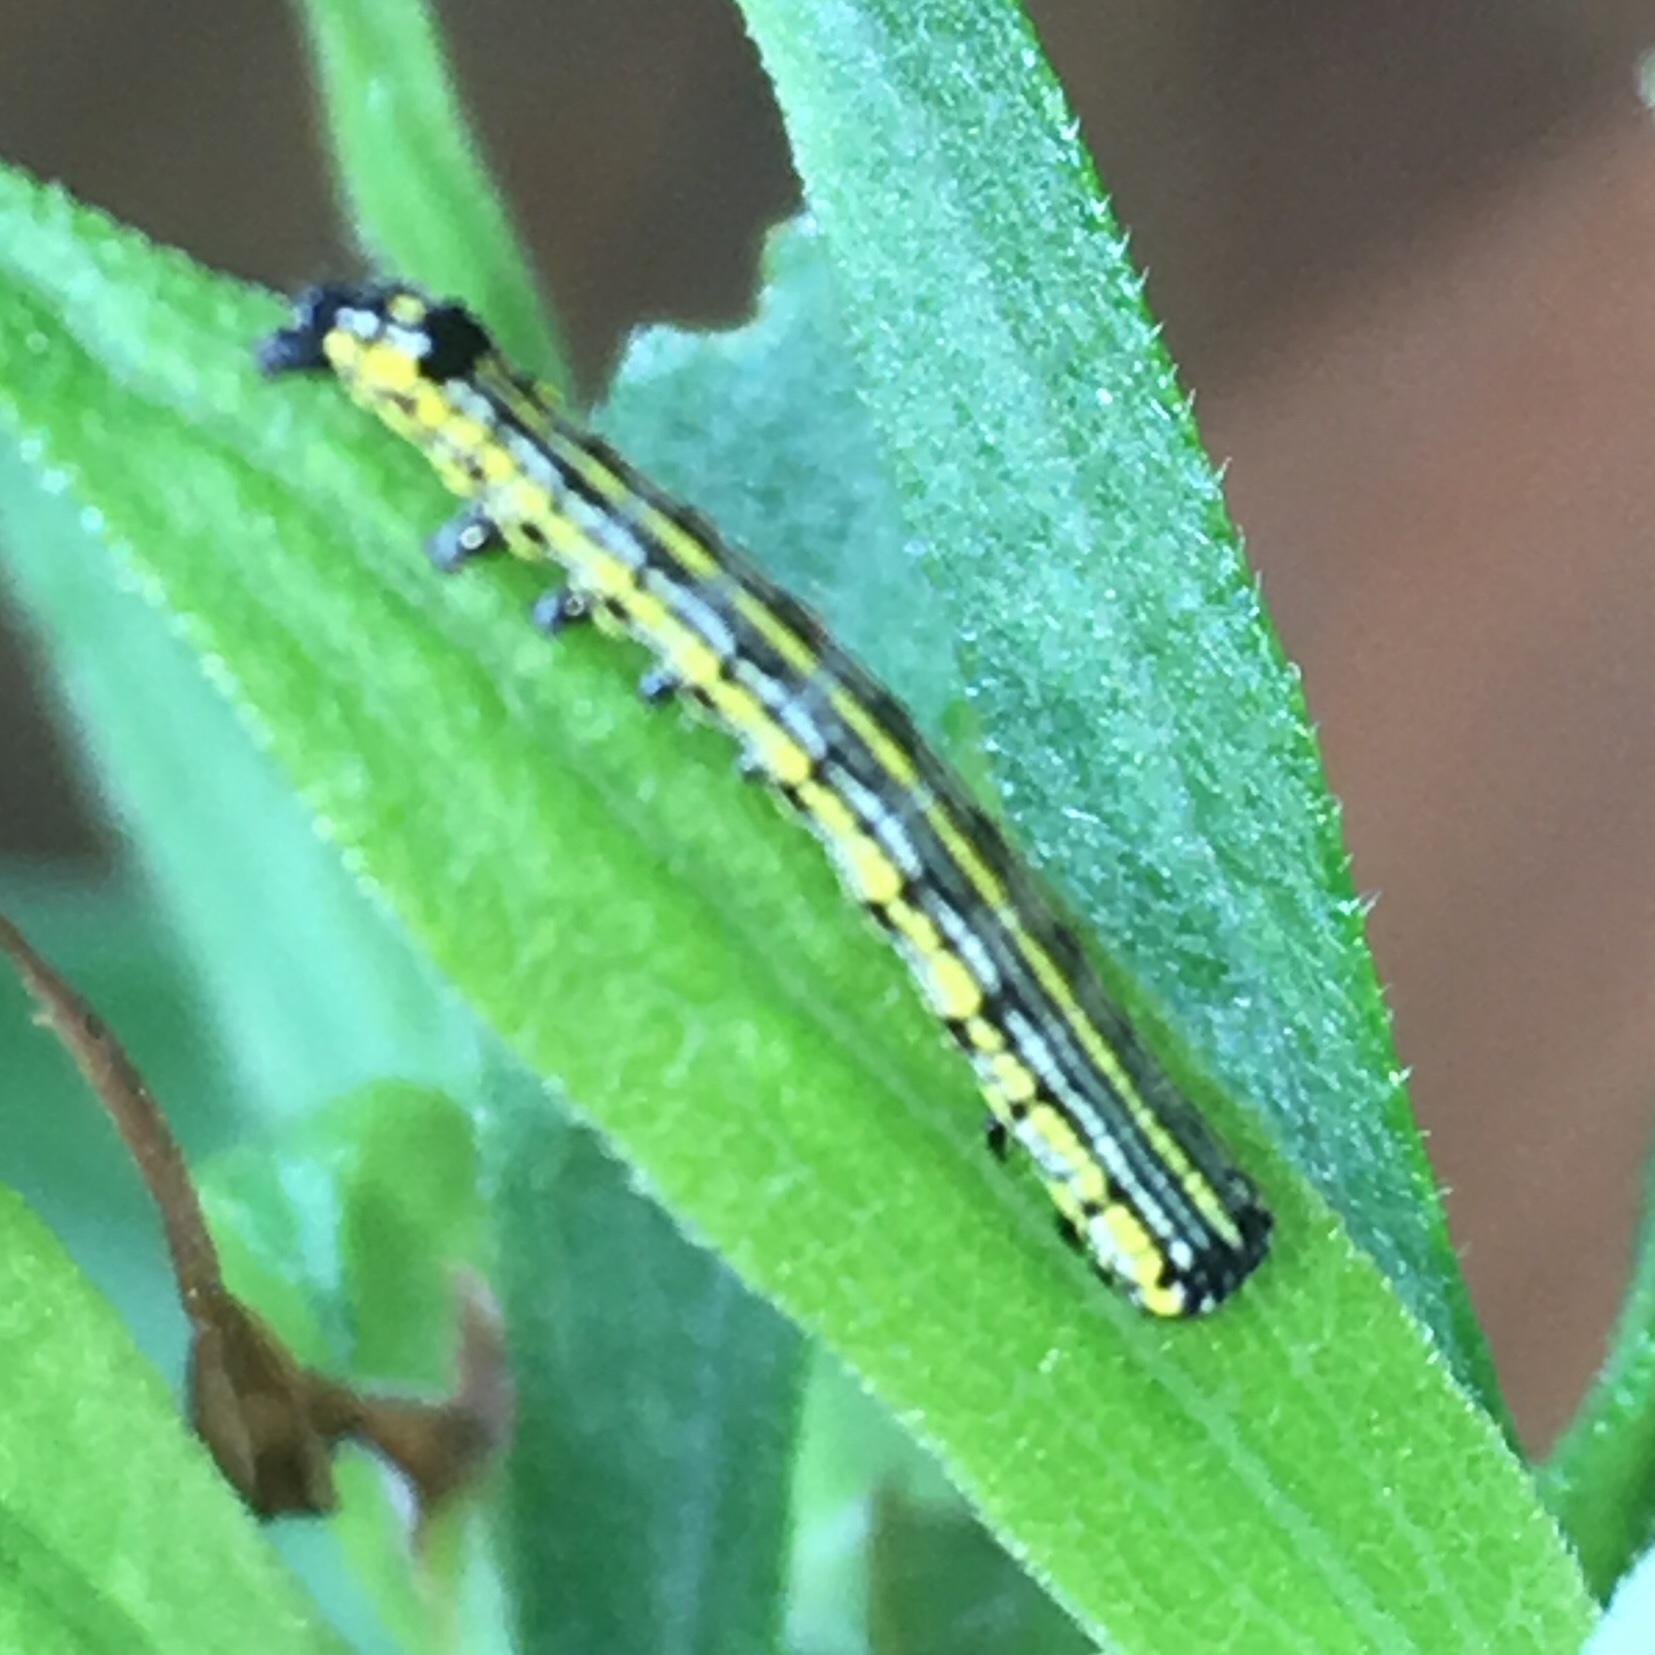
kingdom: Animalia
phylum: Arthropoda
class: Insecta
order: Lepidoptera
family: Noctuidae
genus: Cucullia
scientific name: Cucullia convexipennis
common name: Brown-hooded owlet
